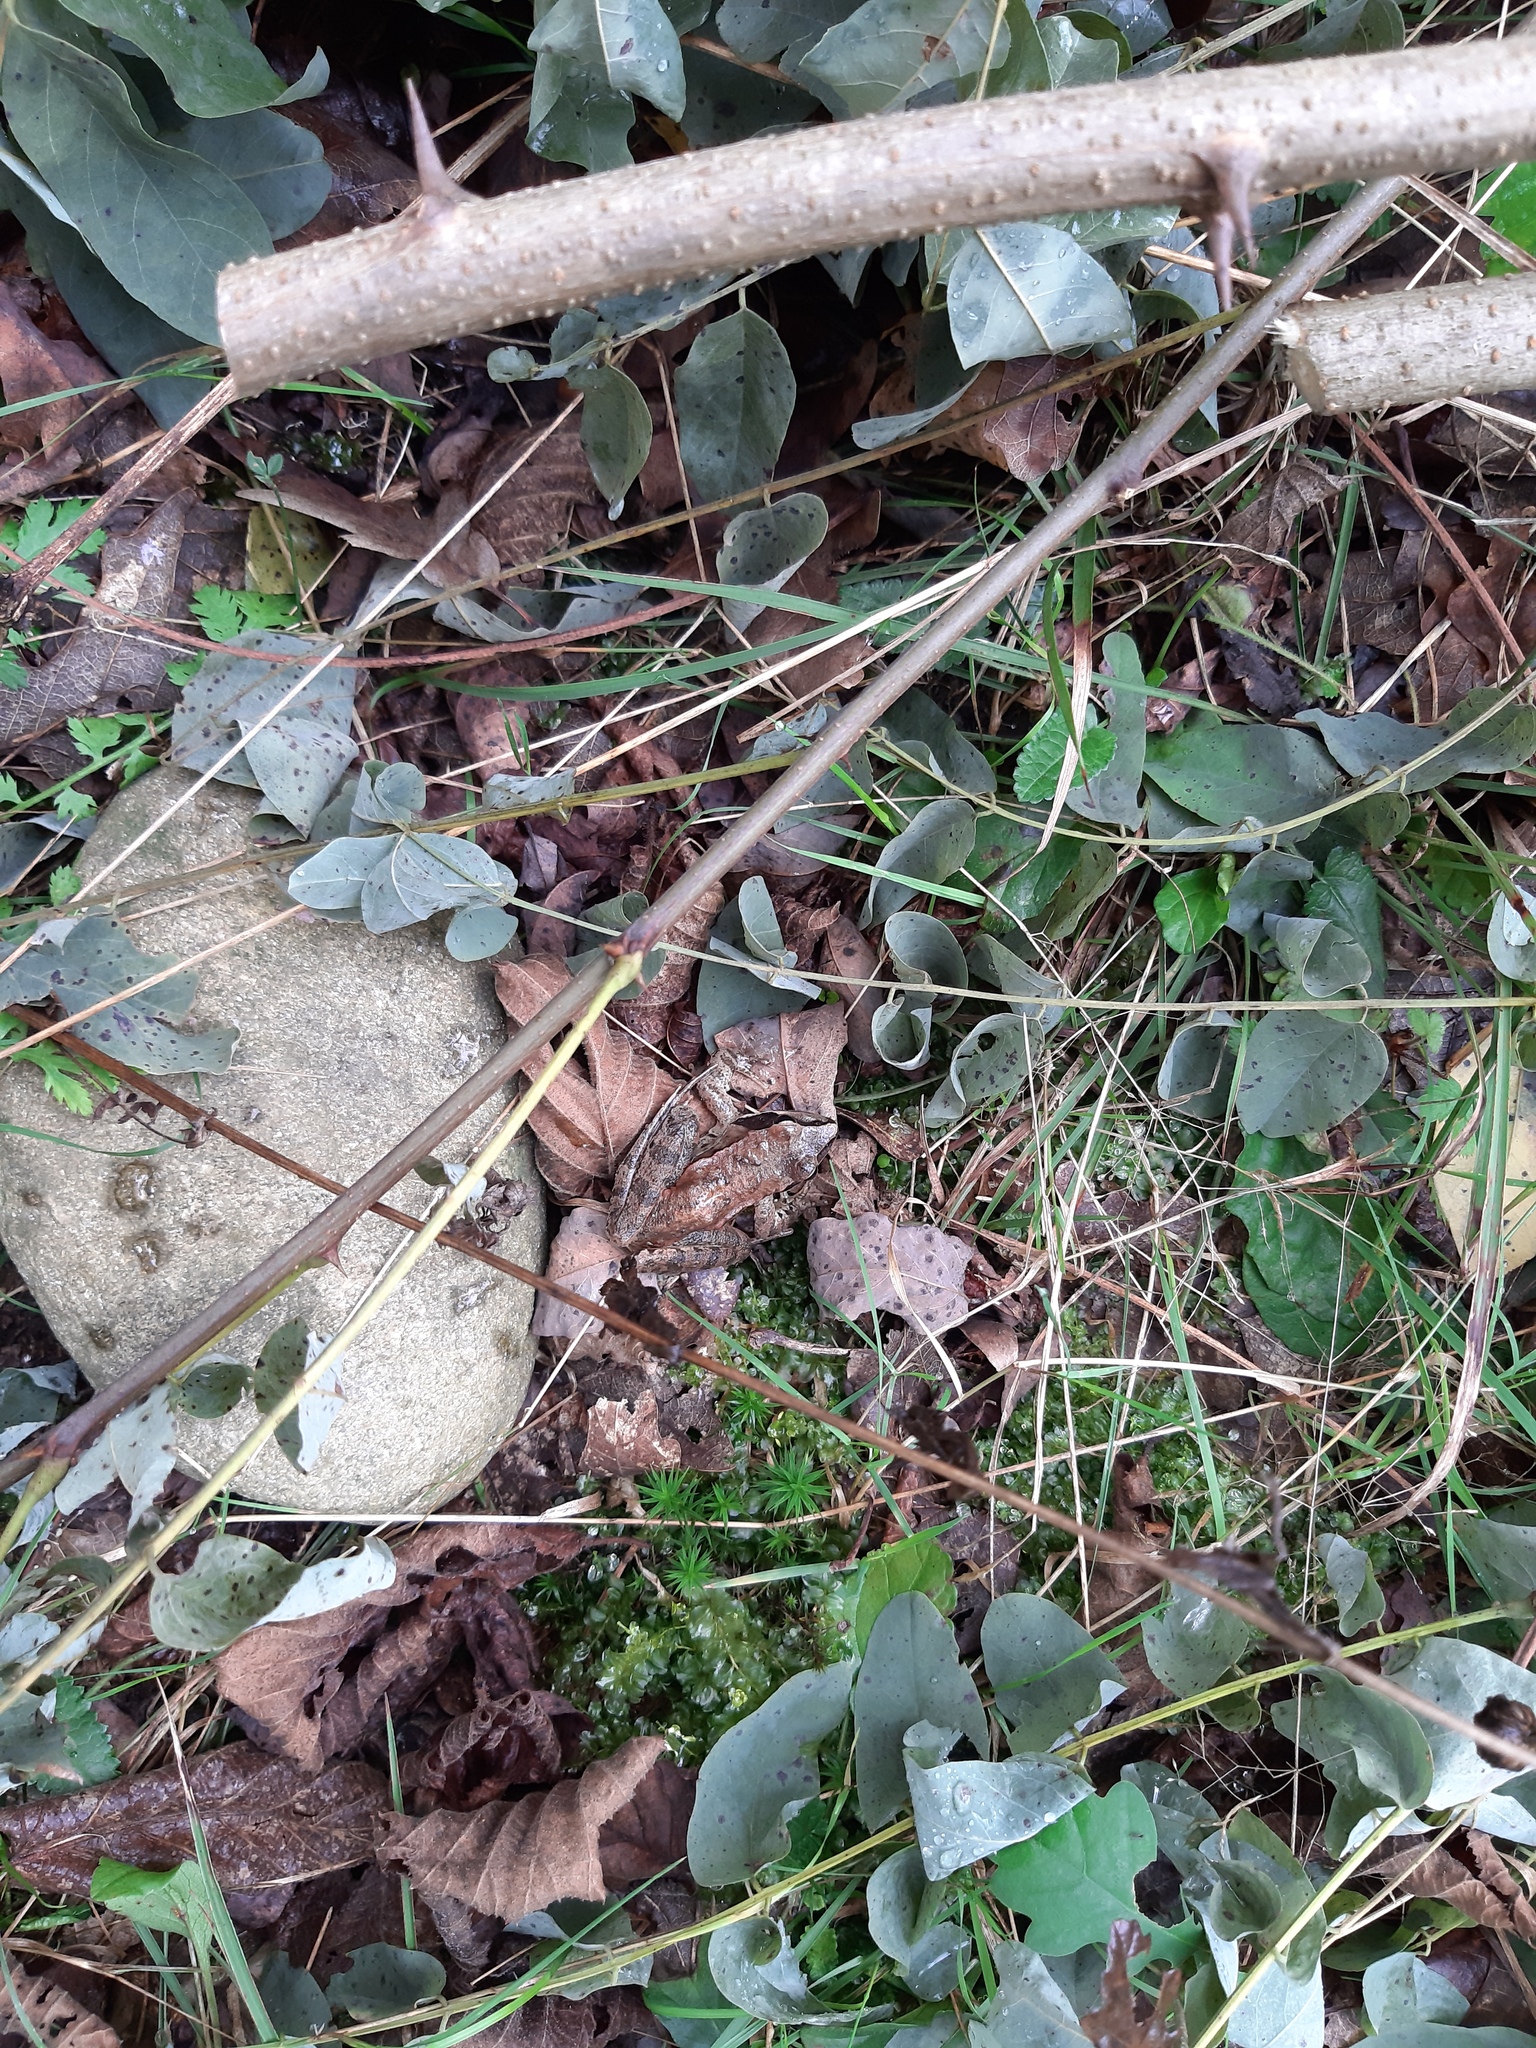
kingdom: Animalia
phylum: Chordata
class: Amphibia
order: Anura
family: Ranidae
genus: Rana
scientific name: Rana dalmatina
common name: Agile frog
